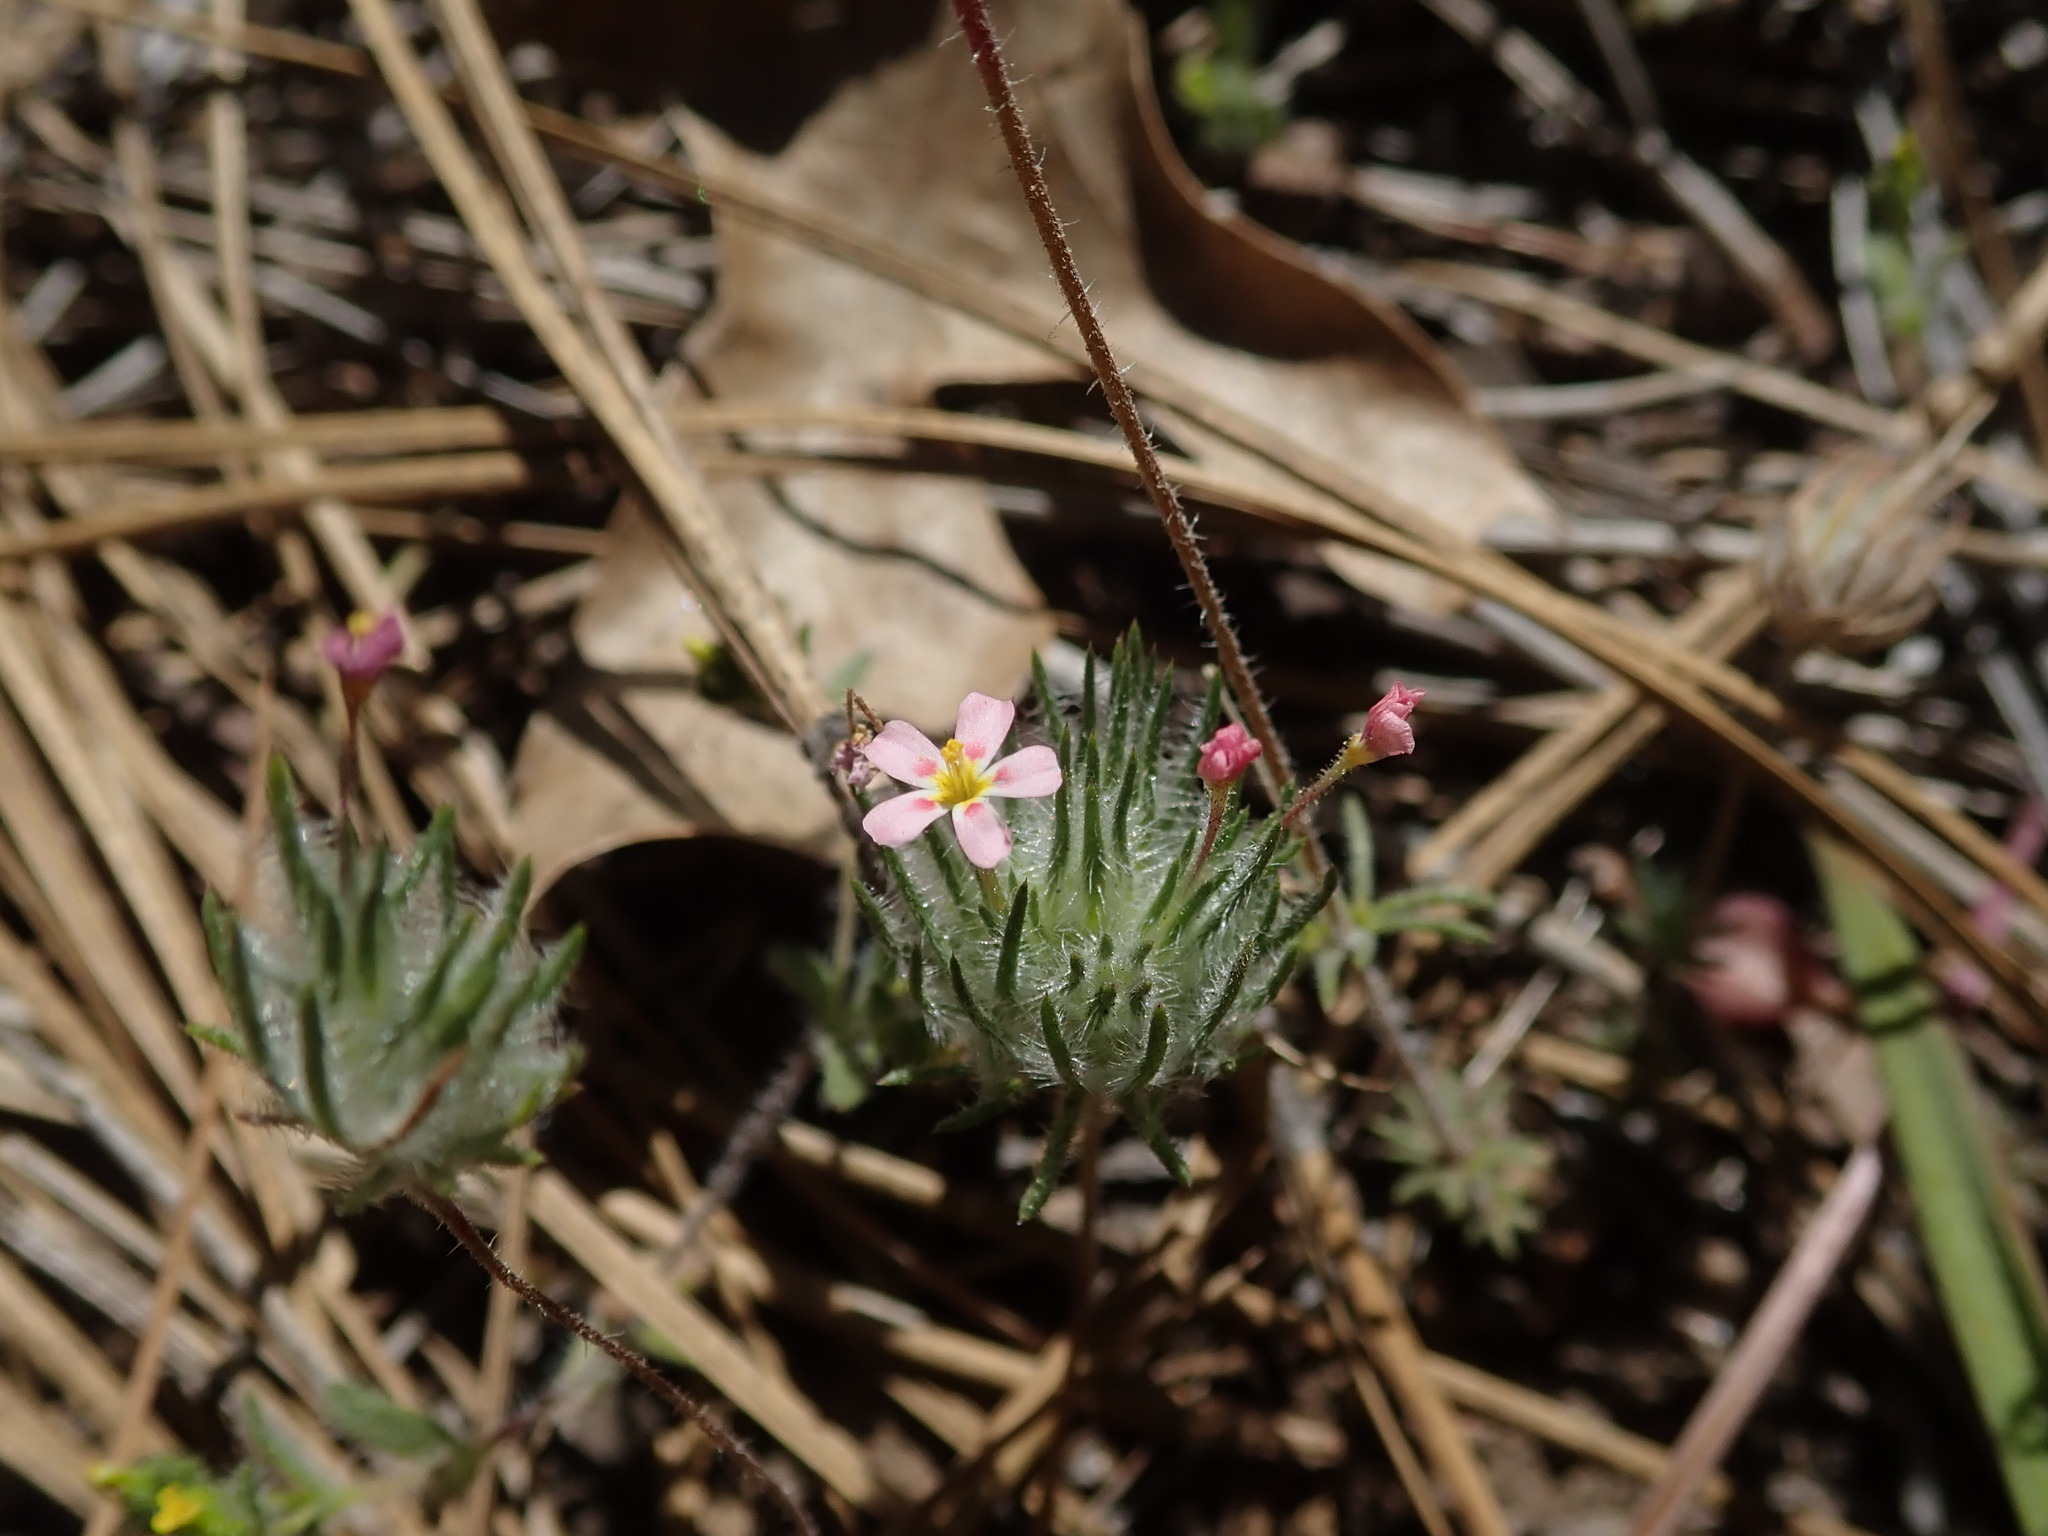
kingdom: Plantae
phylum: Tracheophyta
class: Magnoliopsida
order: Ericales
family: Polemoniaceae
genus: Leptosiphon
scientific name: Leptosiphon ciliatus
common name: Whiskerbrush
